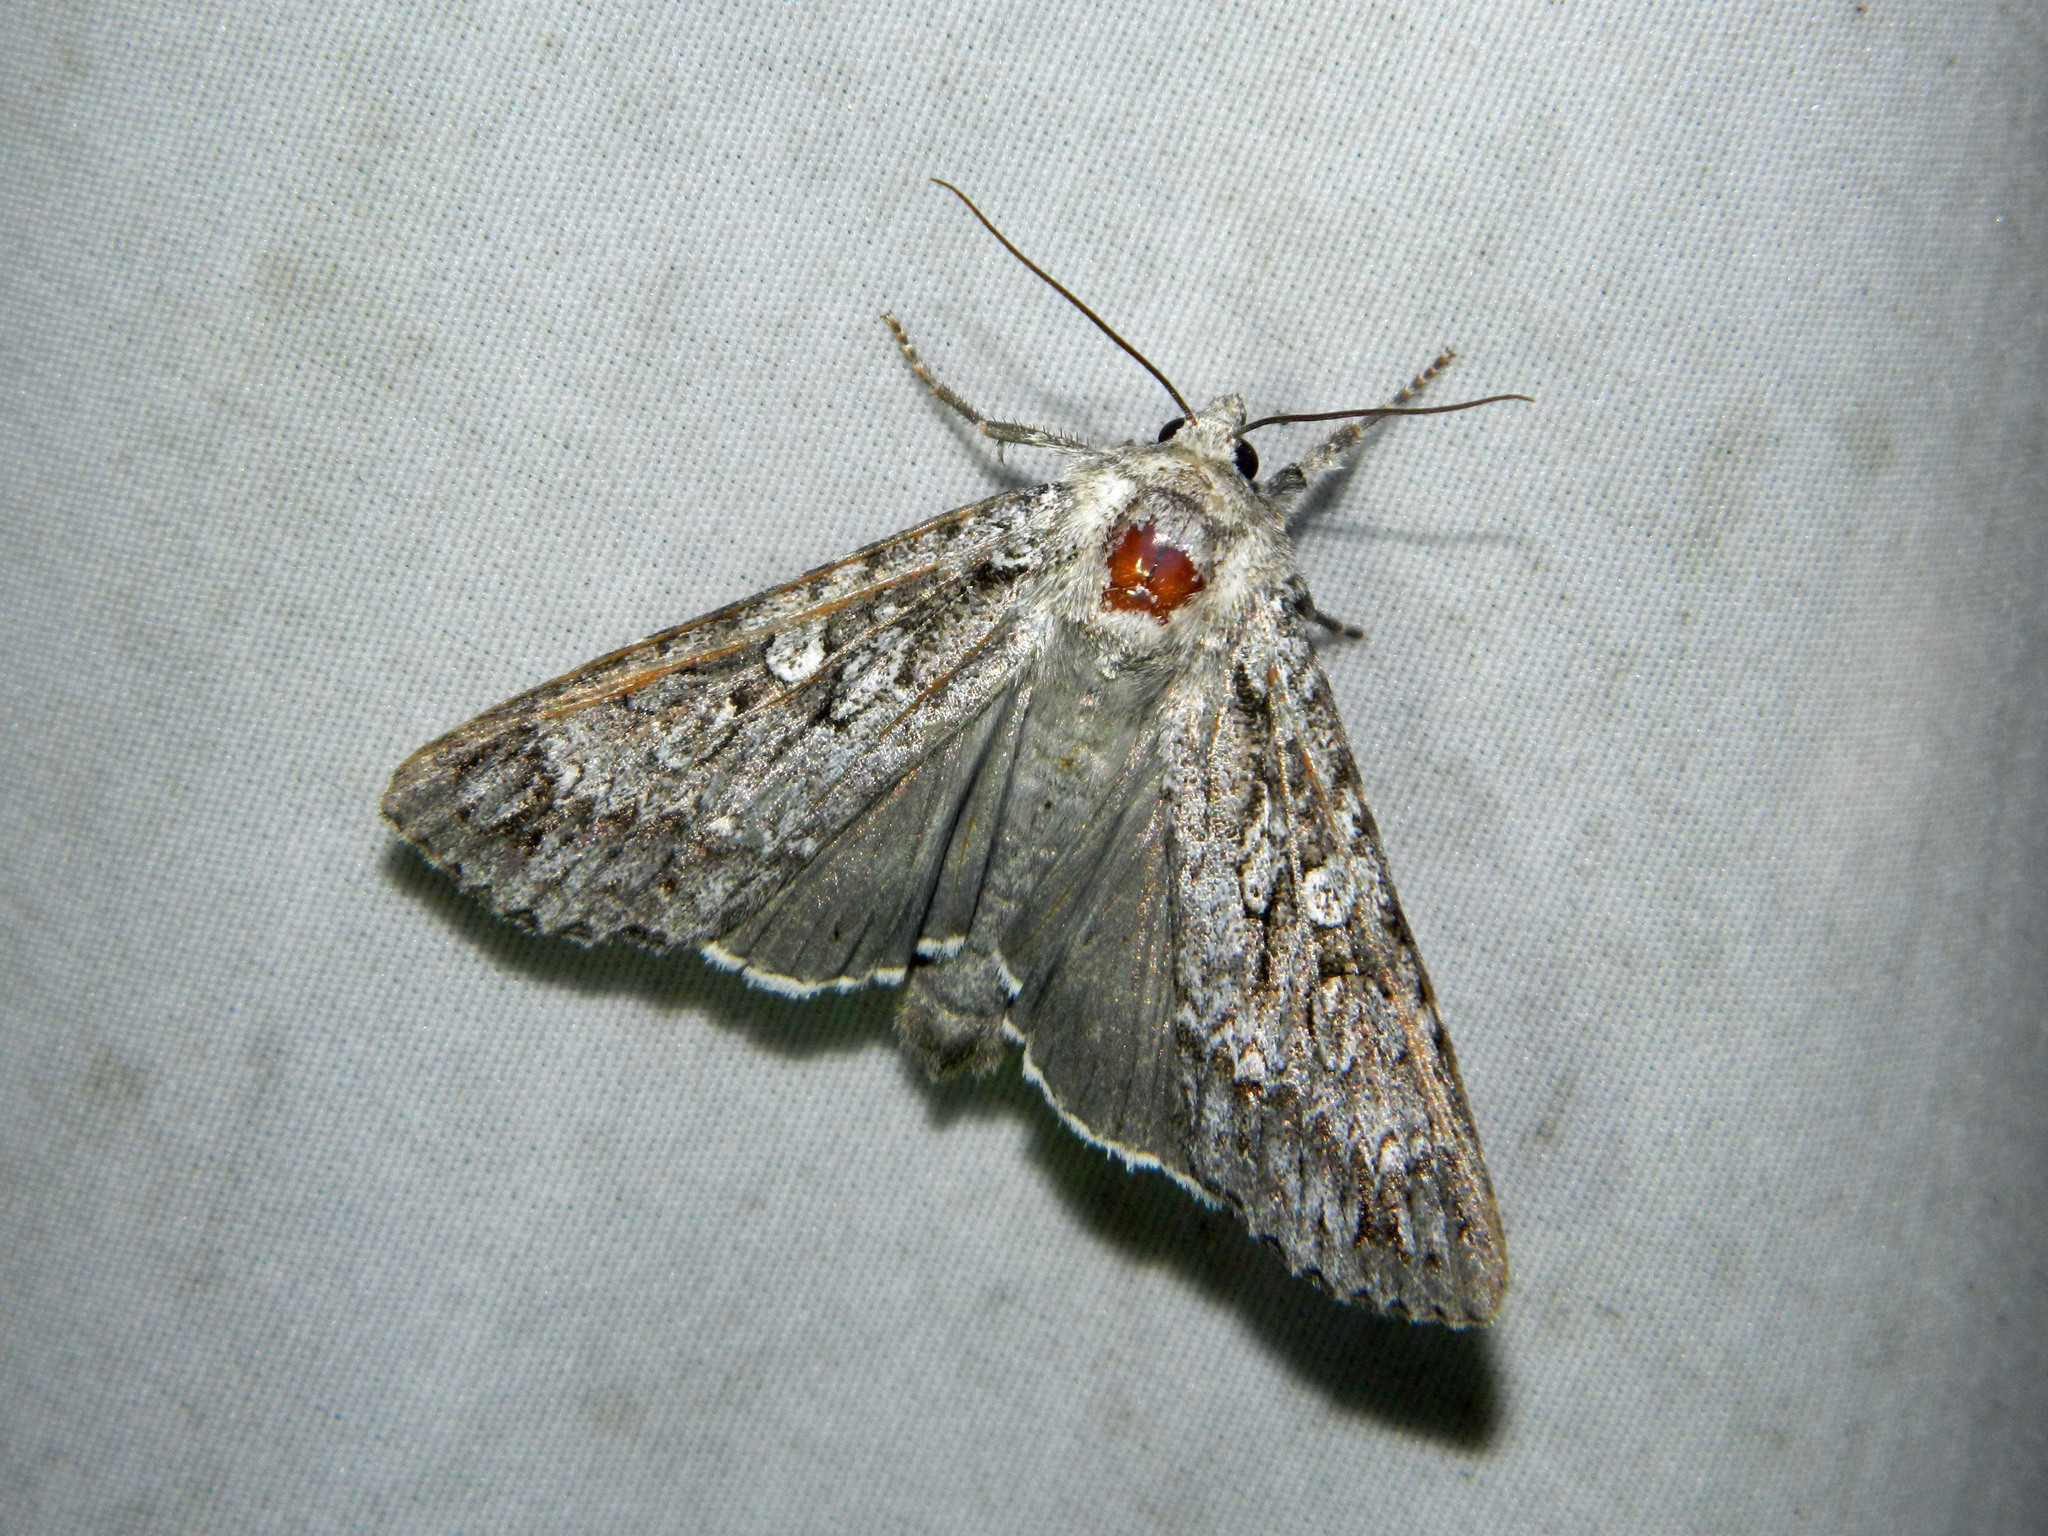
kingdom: Animalia
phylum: Arthropoda
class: Insecta
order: Lepidoptera
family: Noctuidae
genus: Eurois
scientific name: Eurois occulta
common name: Great brocade
